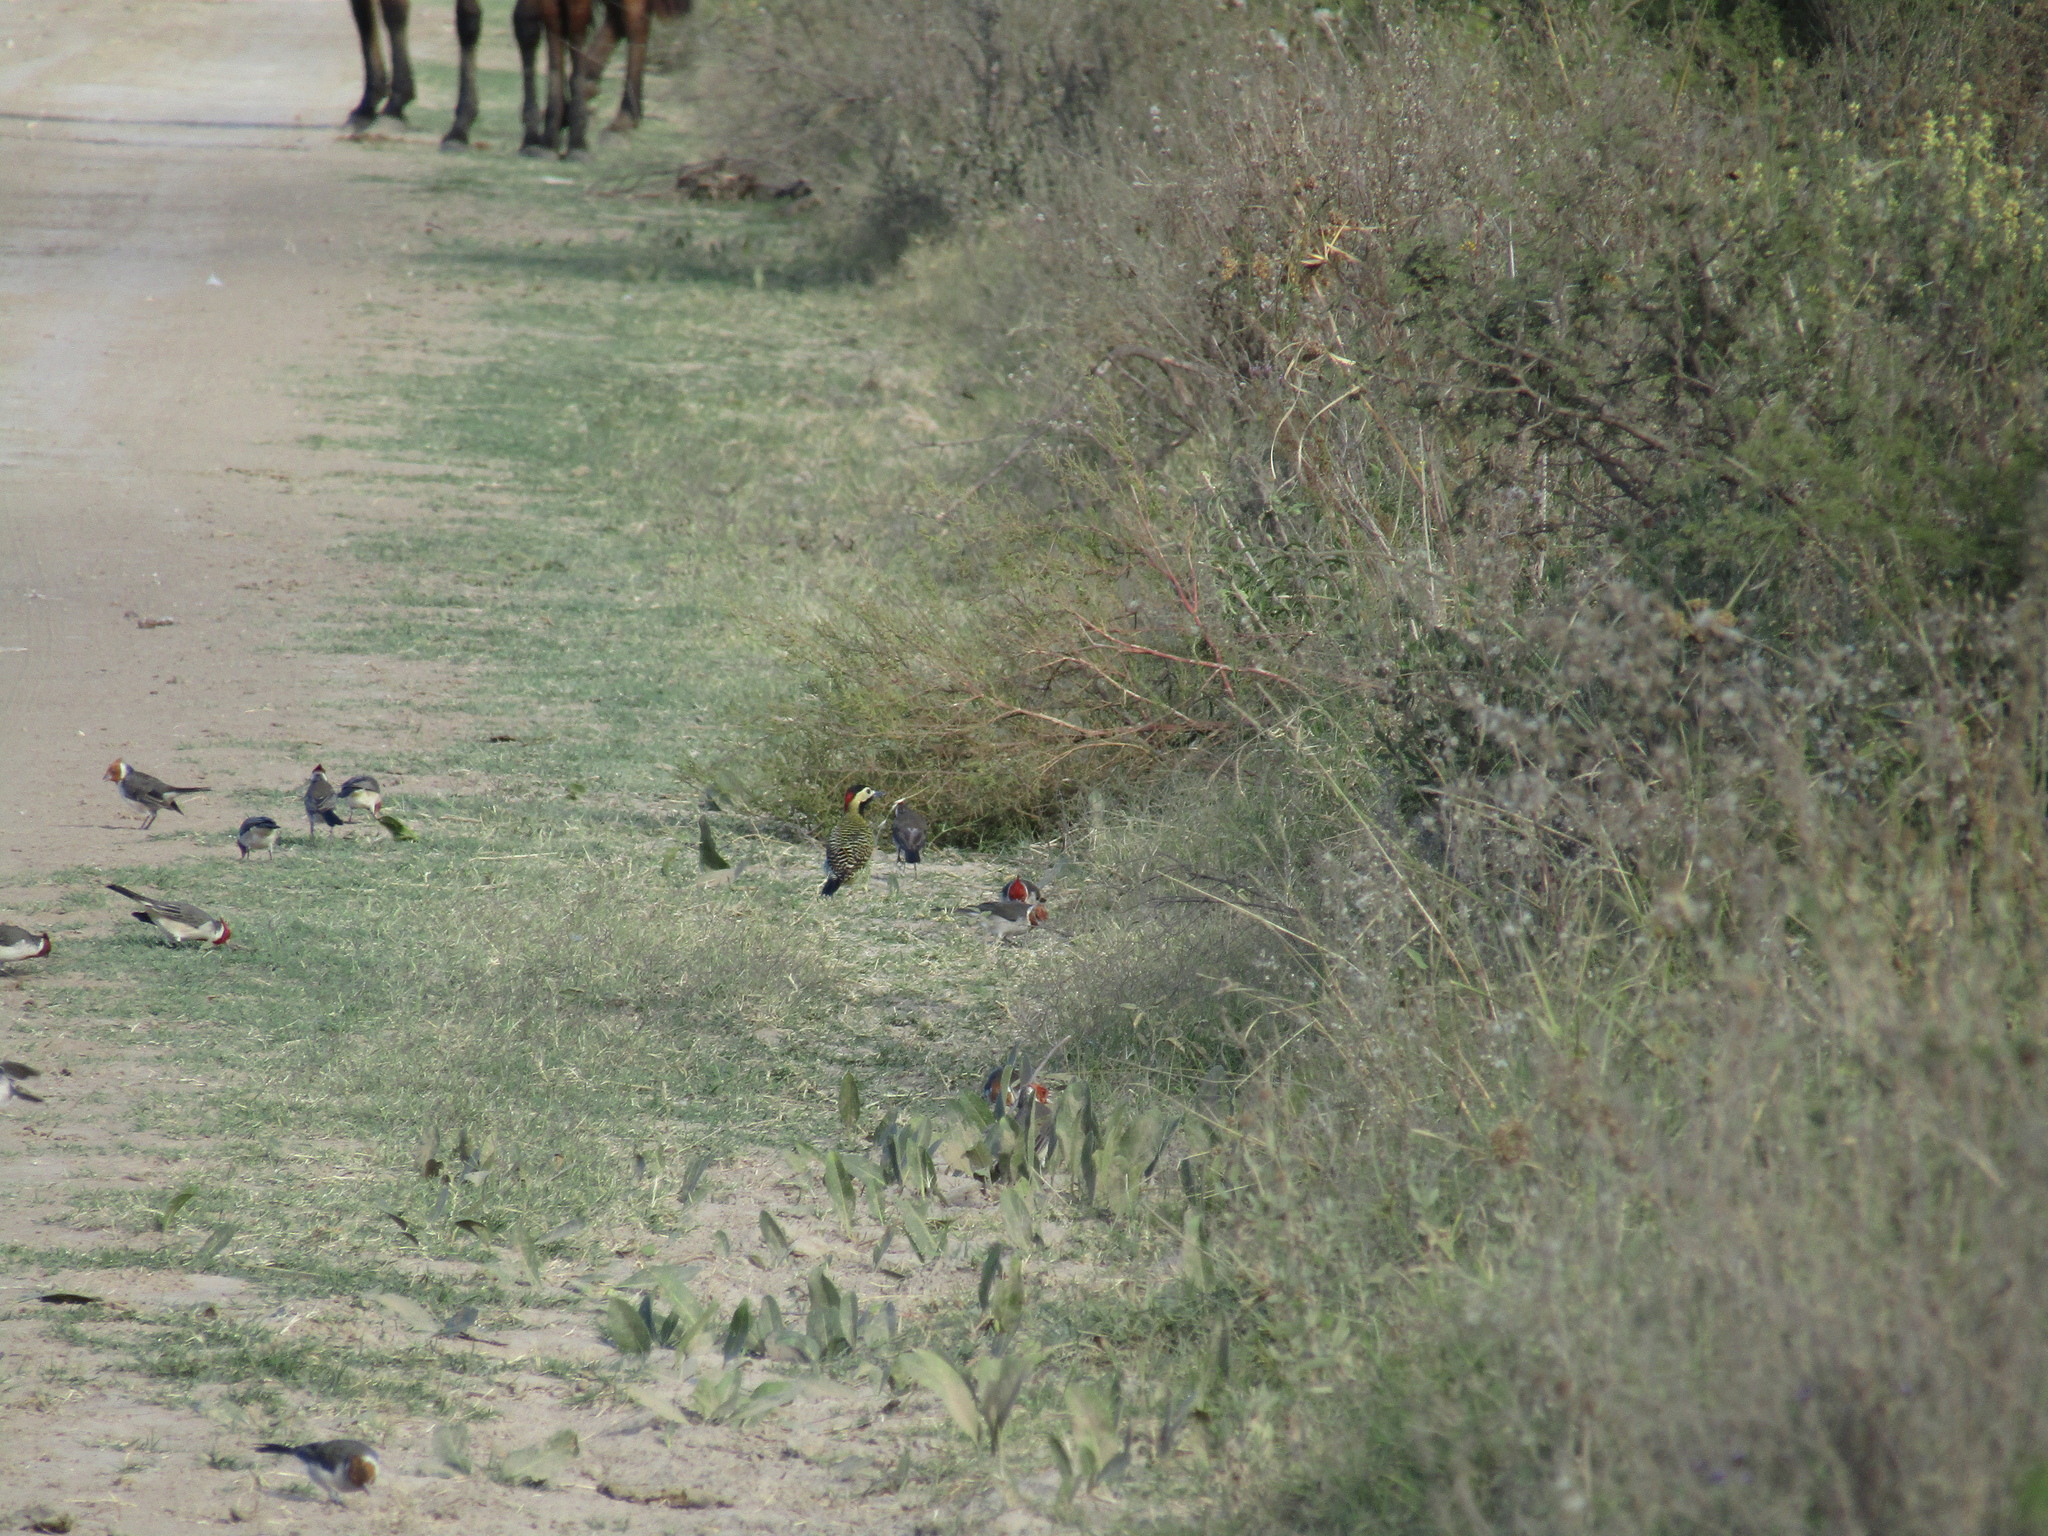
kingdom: Animalia
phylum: Chordata
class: Aves
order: Passeriformes
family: Thraupidae
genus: Paroaria
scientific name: Paroaria coronata
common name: Red-crested cardinal
